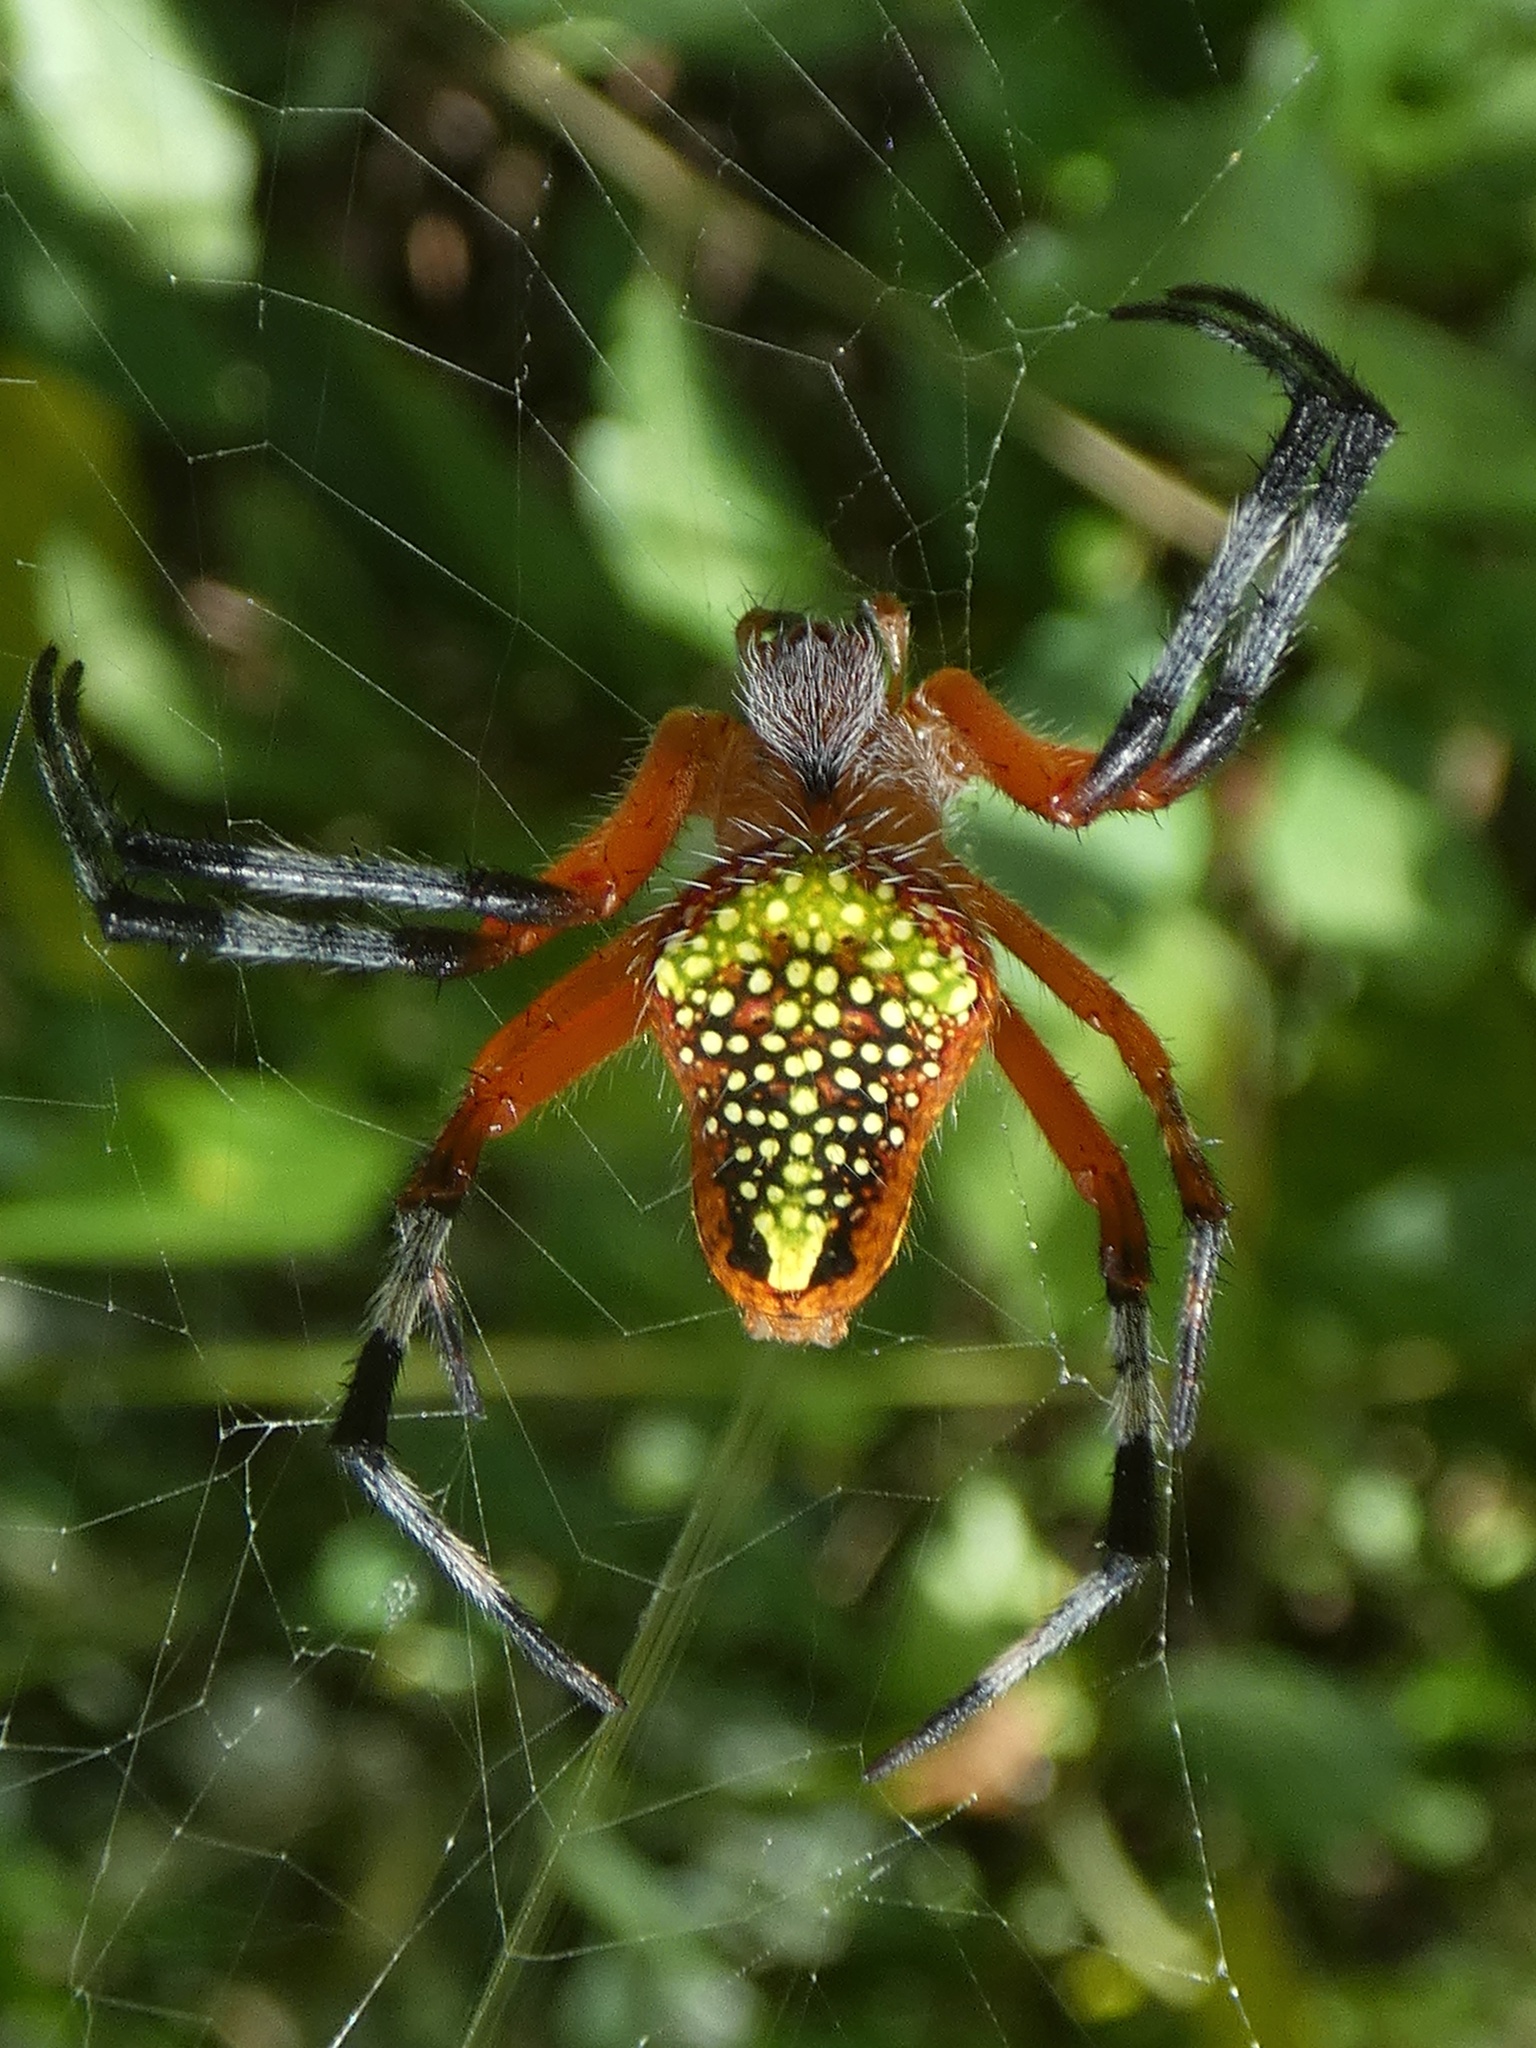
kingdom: Animalia
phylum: Arthropoda
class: Arachnida
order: Araneae
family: Araneidae
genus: Eriophora
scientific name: Eriophora nephiloides
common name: Orb weavers
